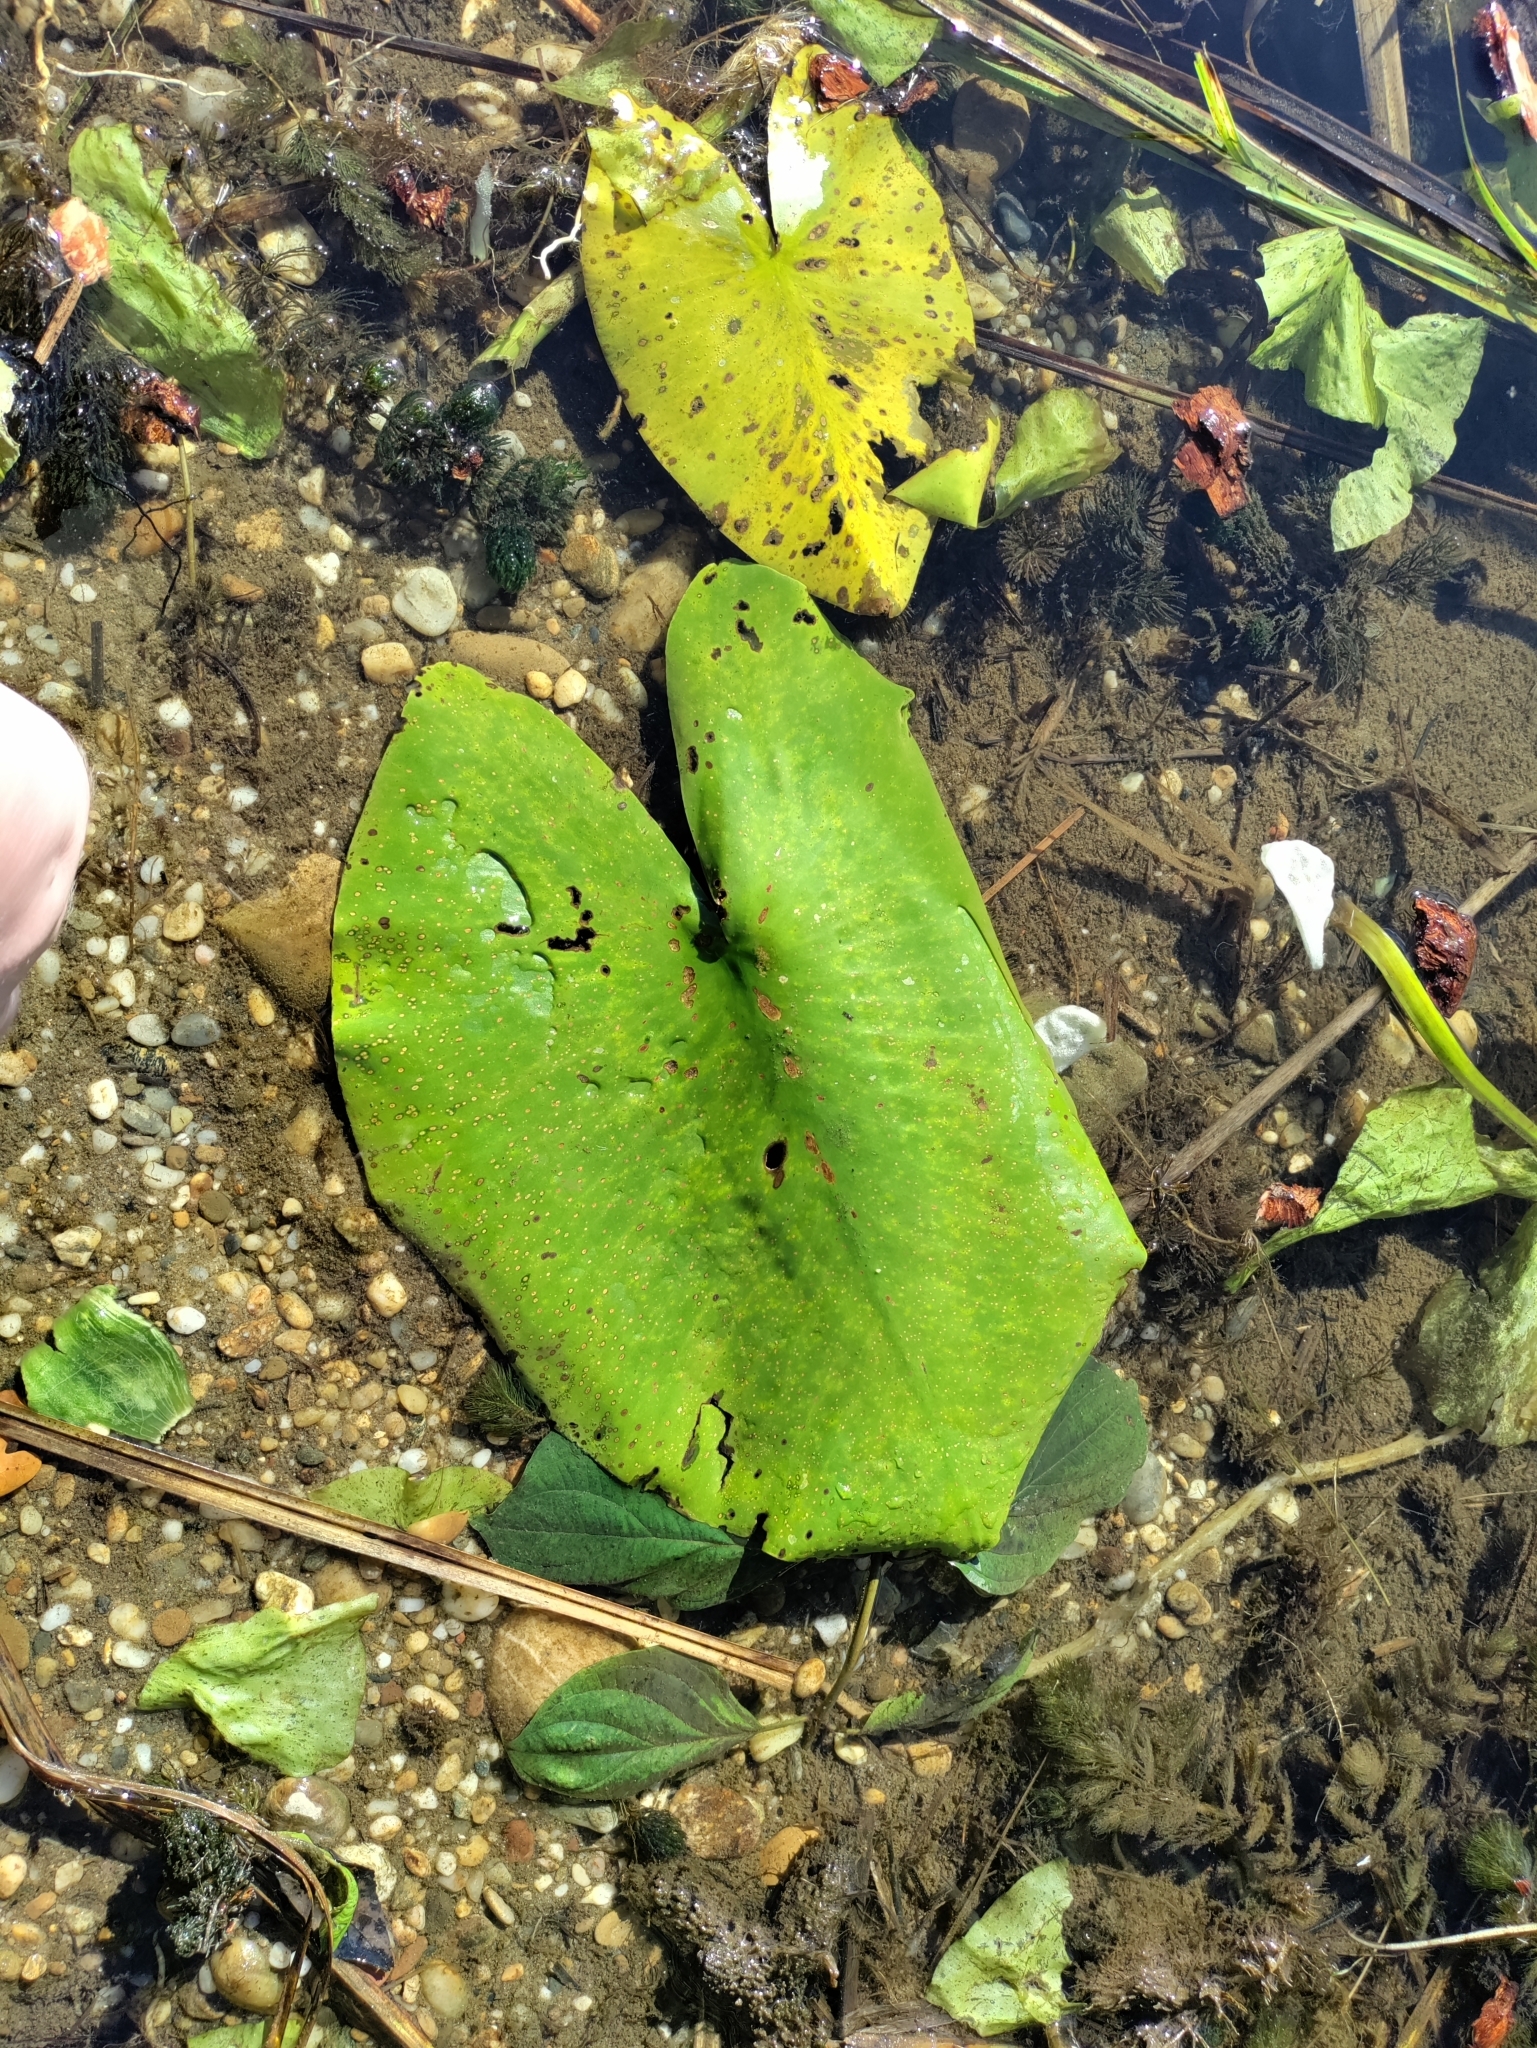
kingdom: Plantae
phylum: Tracheophyta
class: Magnoliopsida
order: Nymphaeales
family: Nymphaeaceae
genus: Nuphar
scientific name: Nuphar lutea
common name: Yellow water-lily
